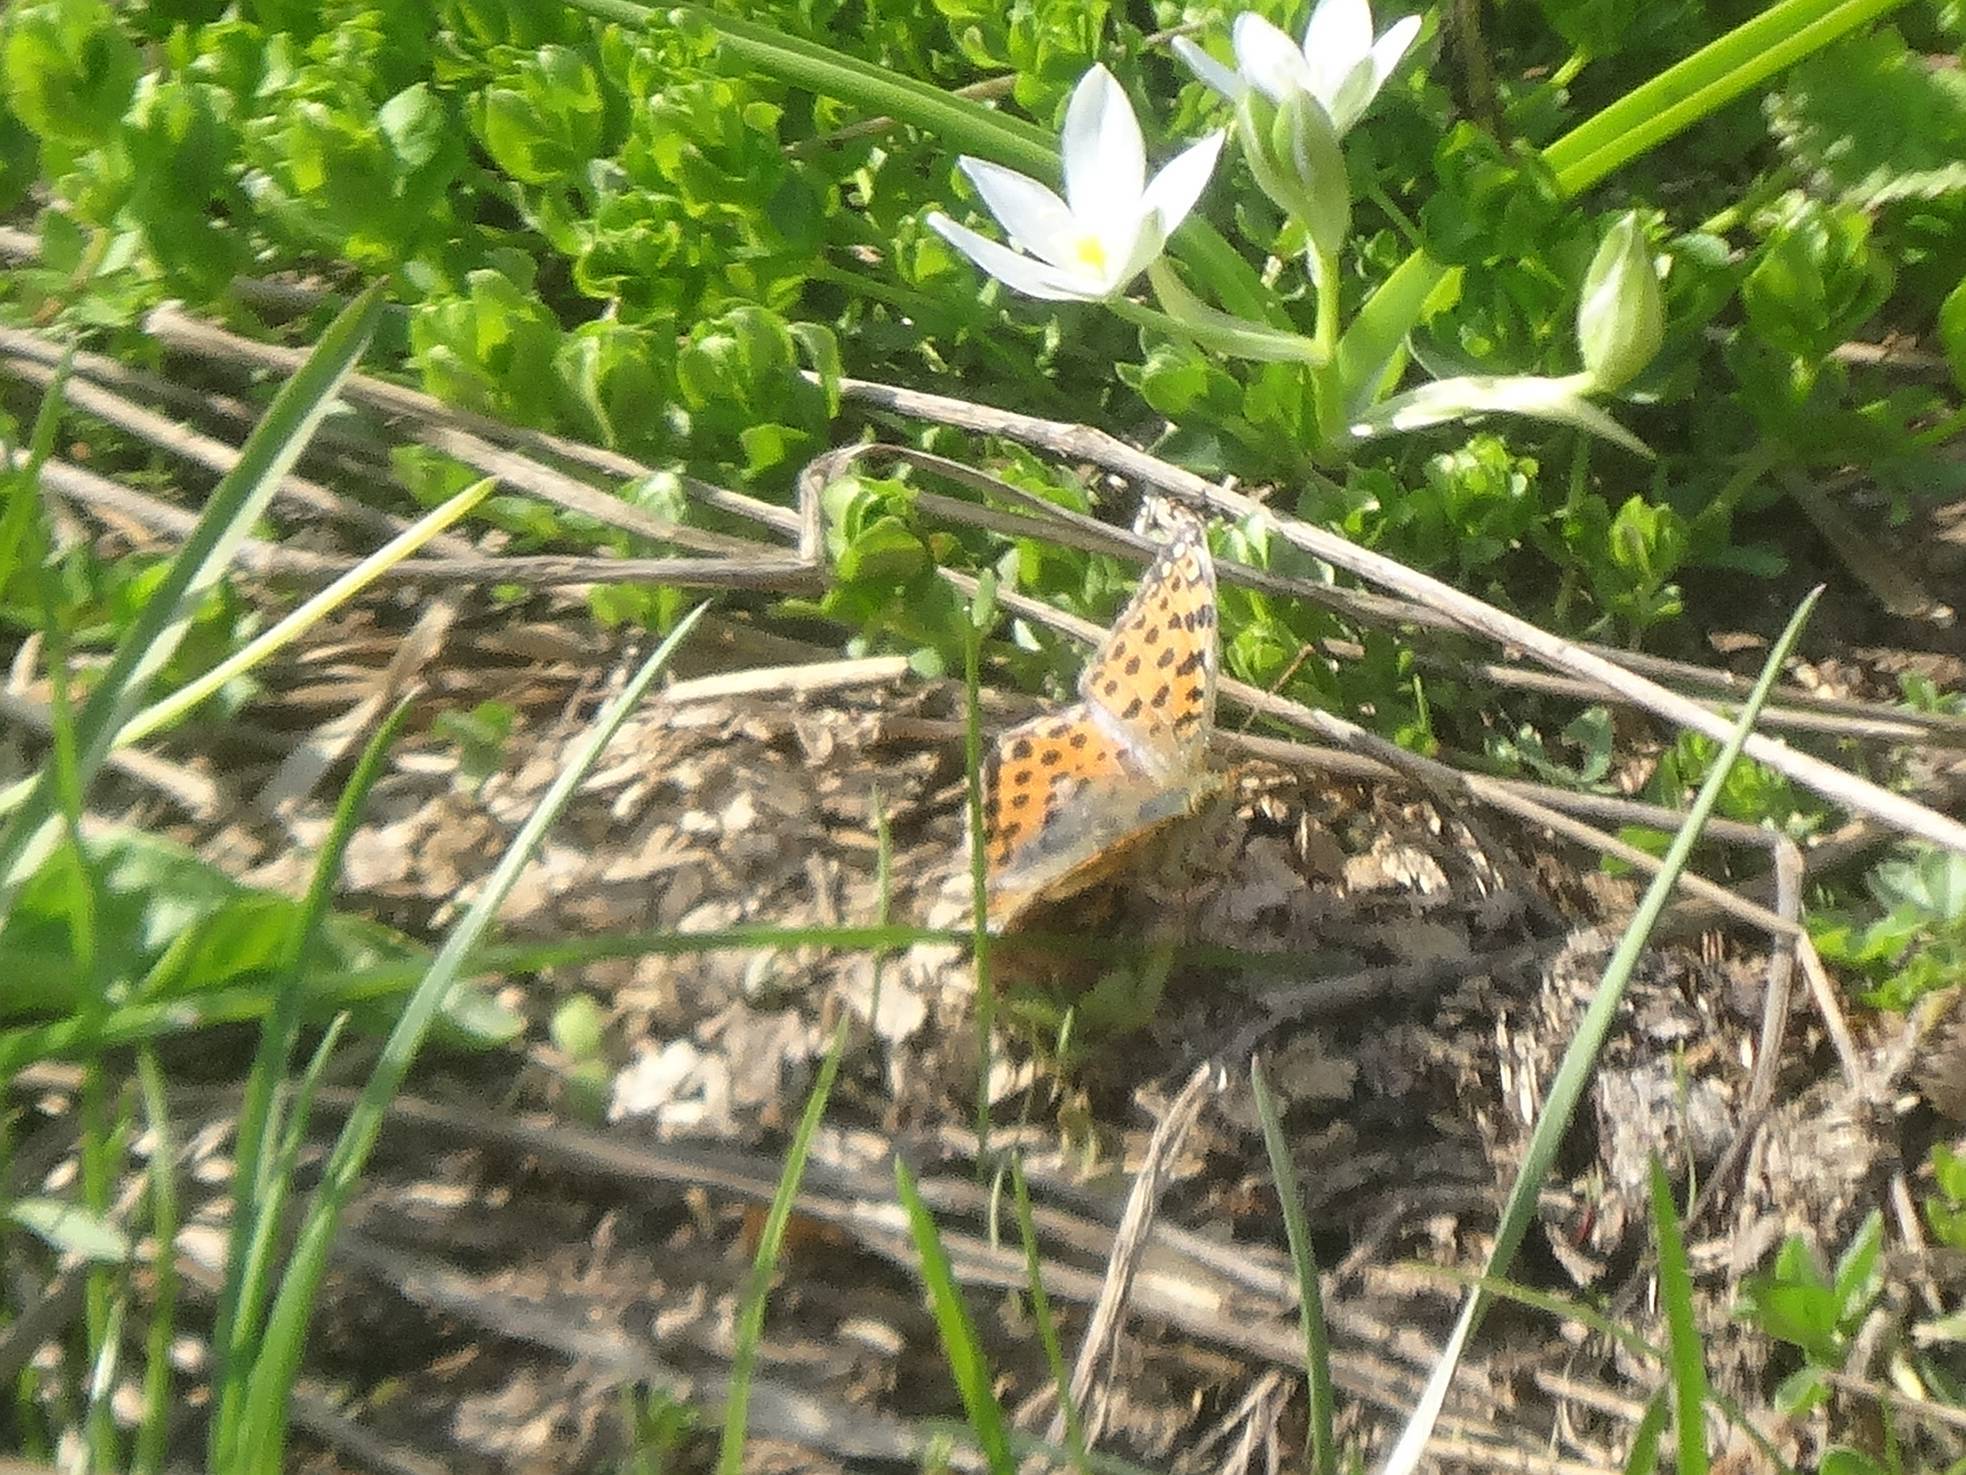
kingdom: Animalia
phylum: Arthropoda
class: Insecta
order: Lepidoptera
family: Nymphalidae
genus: Issoria
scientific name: Issoria lathonia
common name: Queen of spain fritillary
